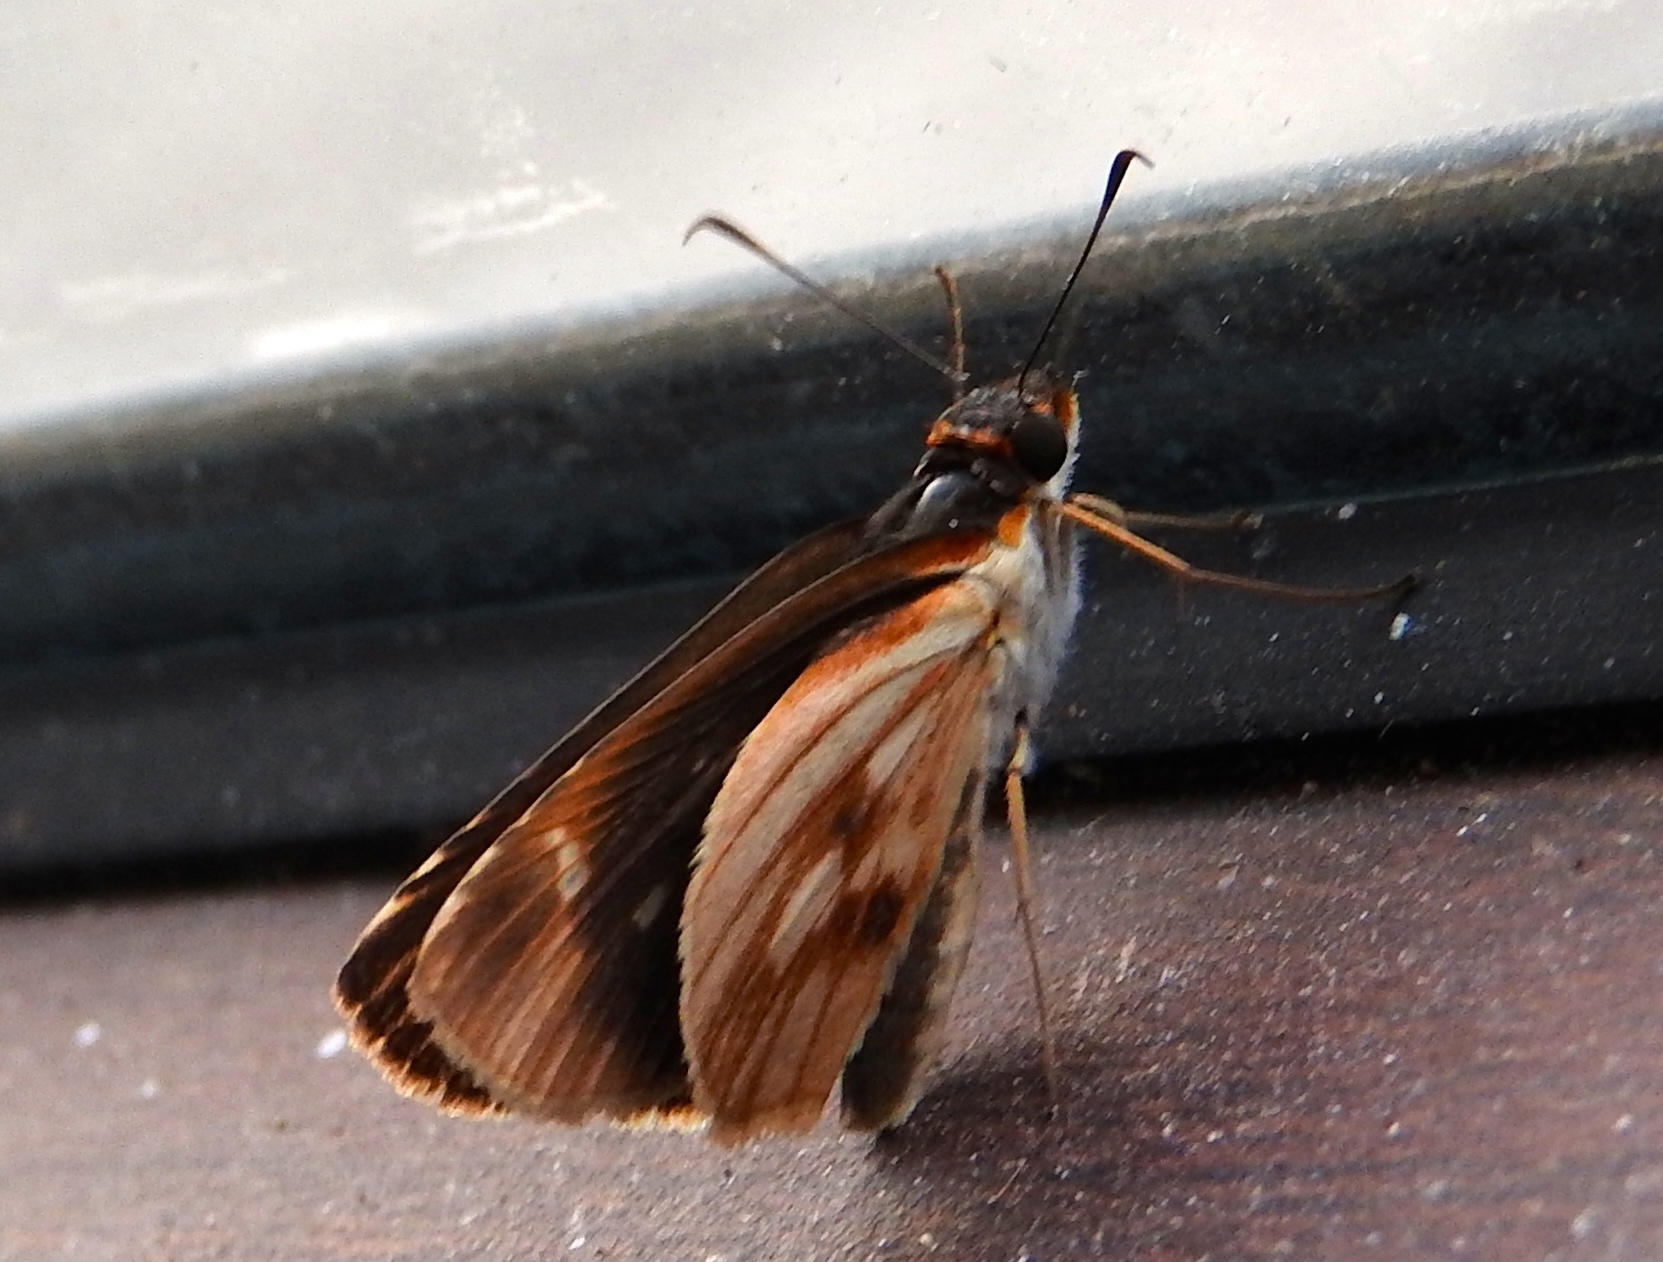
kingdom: Animalia
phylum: Arthropoda
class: Insecta
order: Lepidoptera
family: Hesperiidae
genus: Troyus
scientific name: Troyus fantasos
